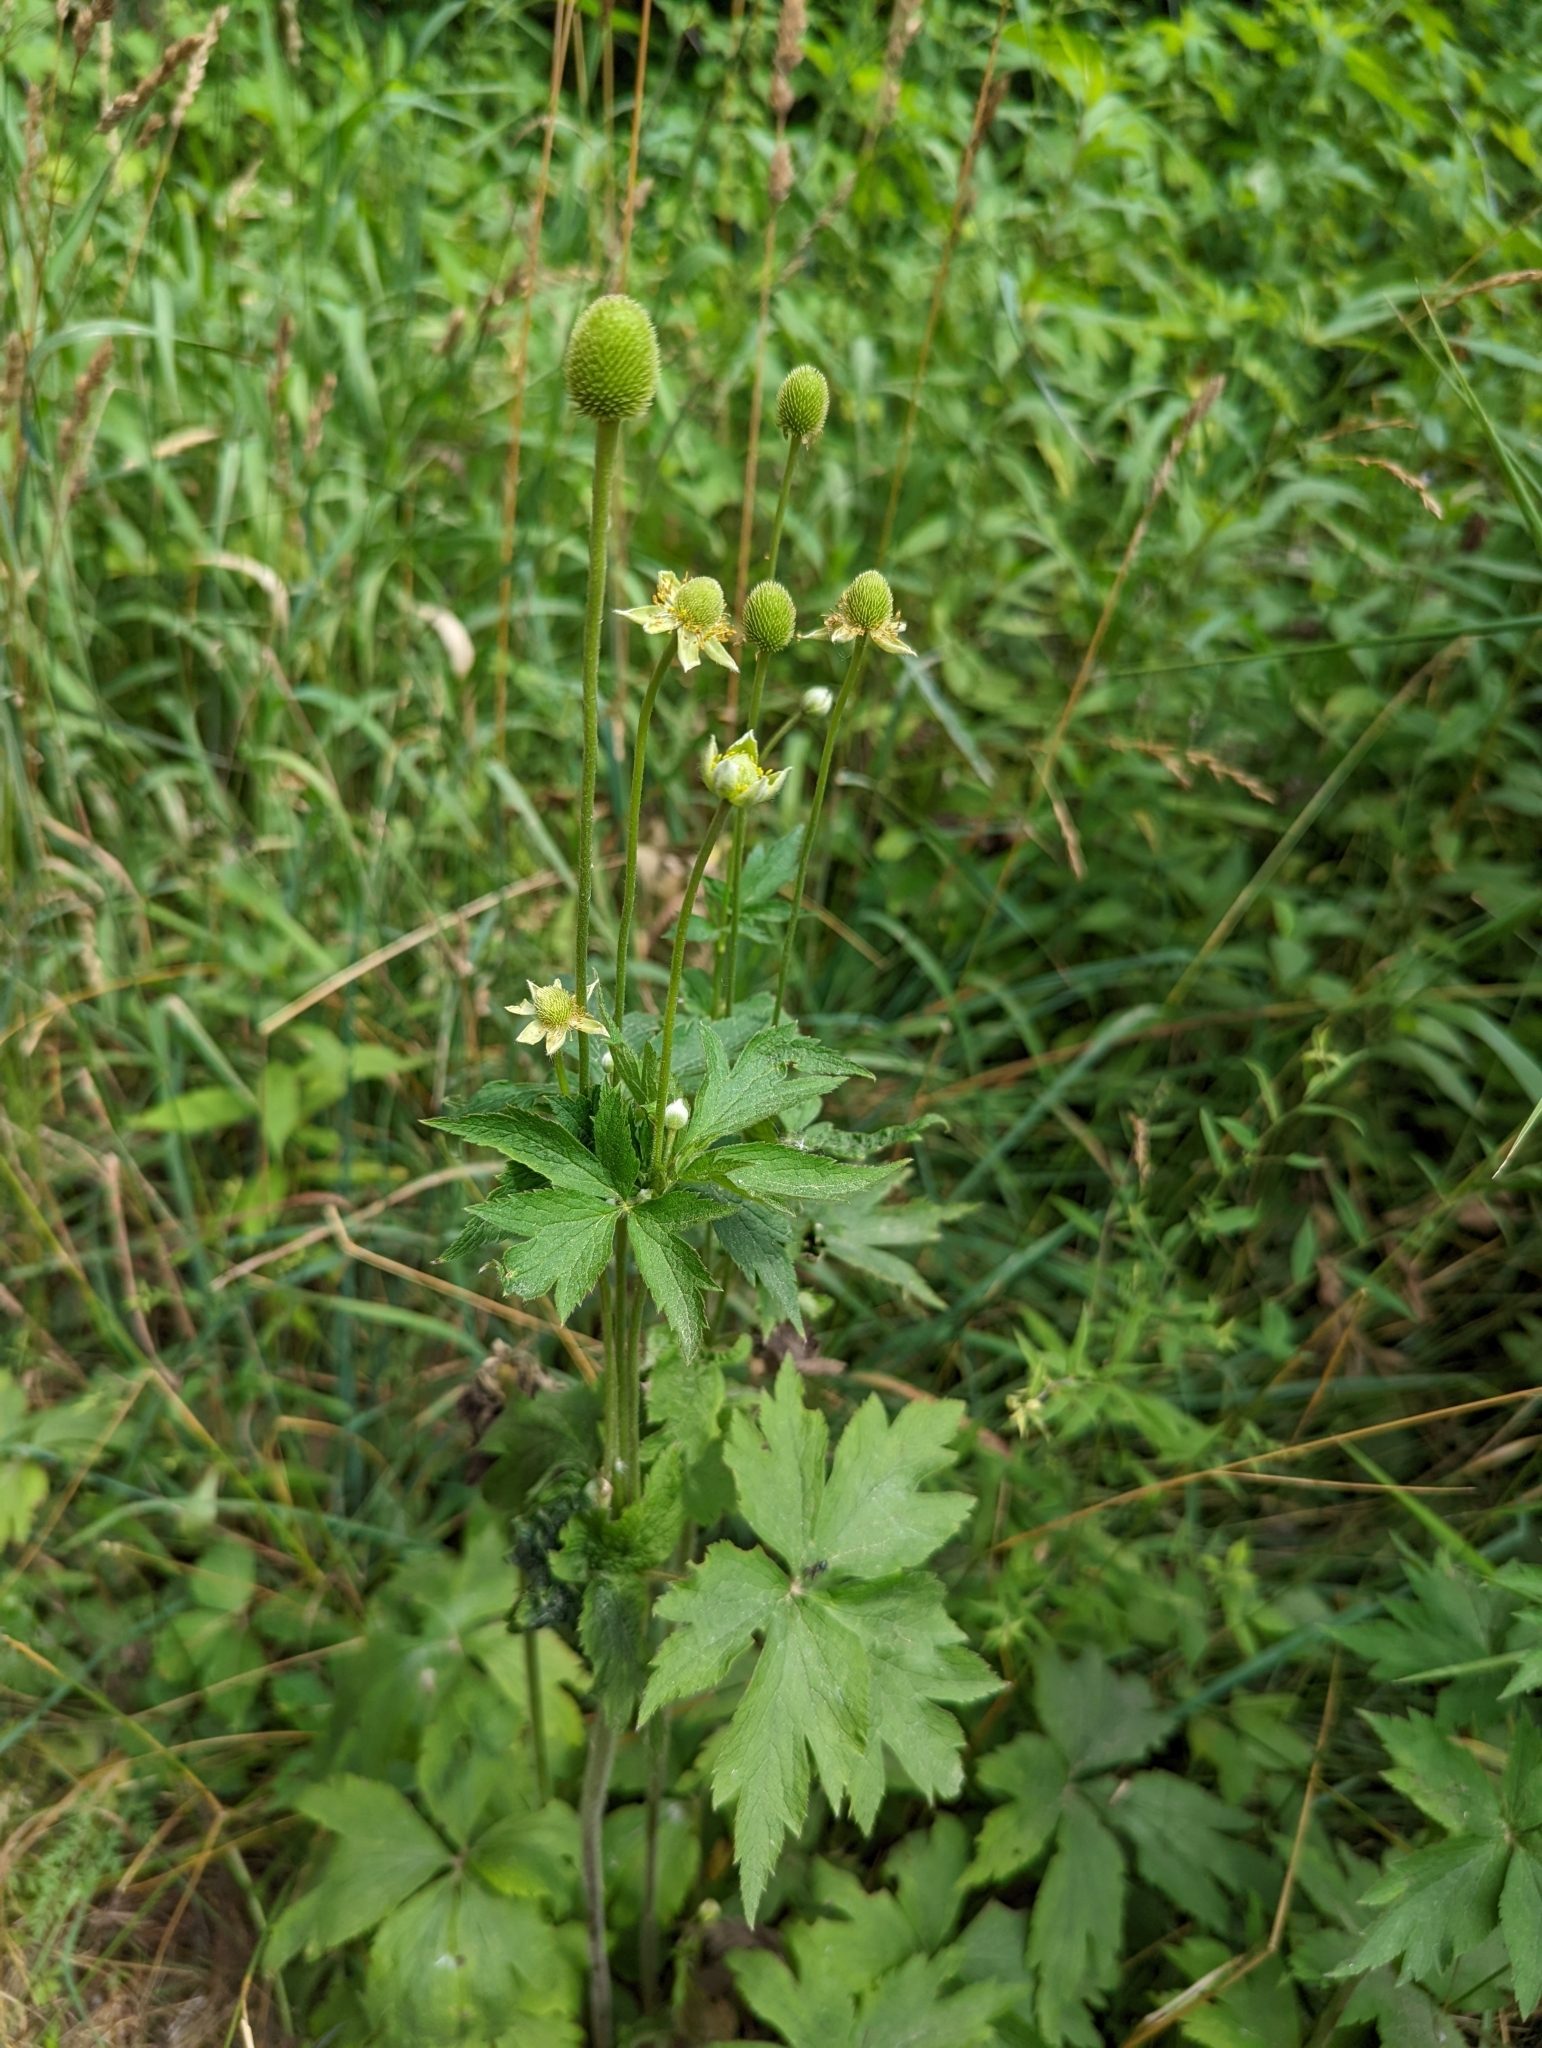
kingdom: Plantae
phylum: Tracheophyta
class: Magnoliopsida
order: Ranunculales
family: Ranunculaceae
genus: Anemone
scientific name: Anemone virginiana
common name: Tall anemone
